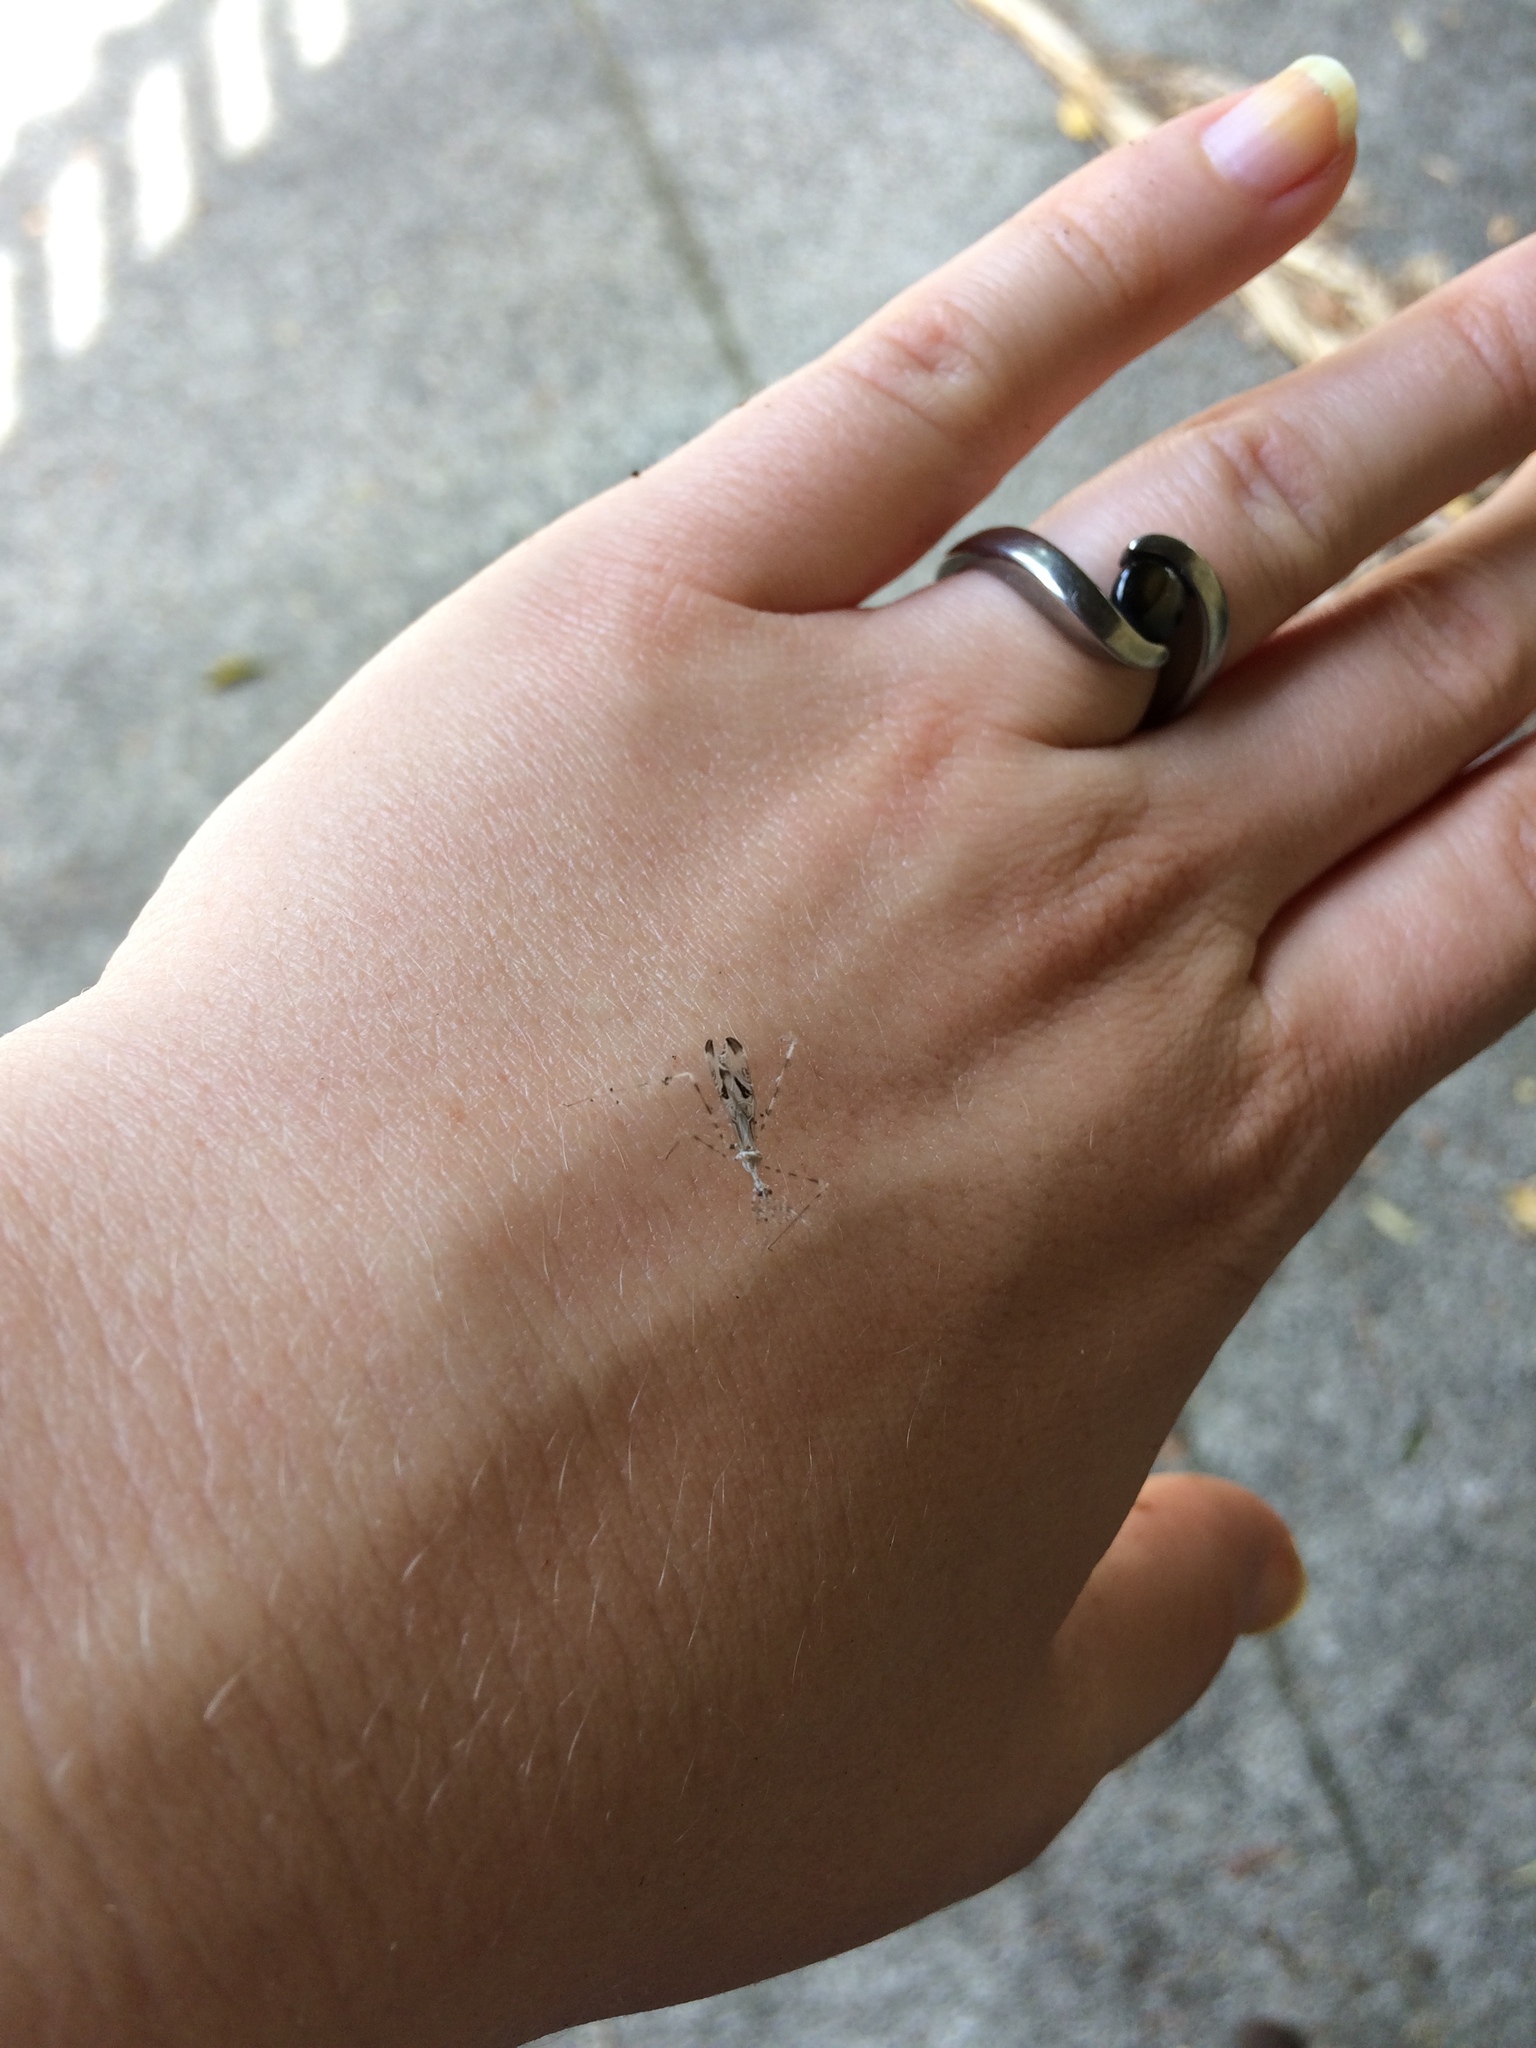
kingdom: Animalia
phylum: Arthropoda
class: Insecta
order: Hemiptera
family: Reduviidae
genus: Stenolemus
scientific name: Stenolemus fraterculus
